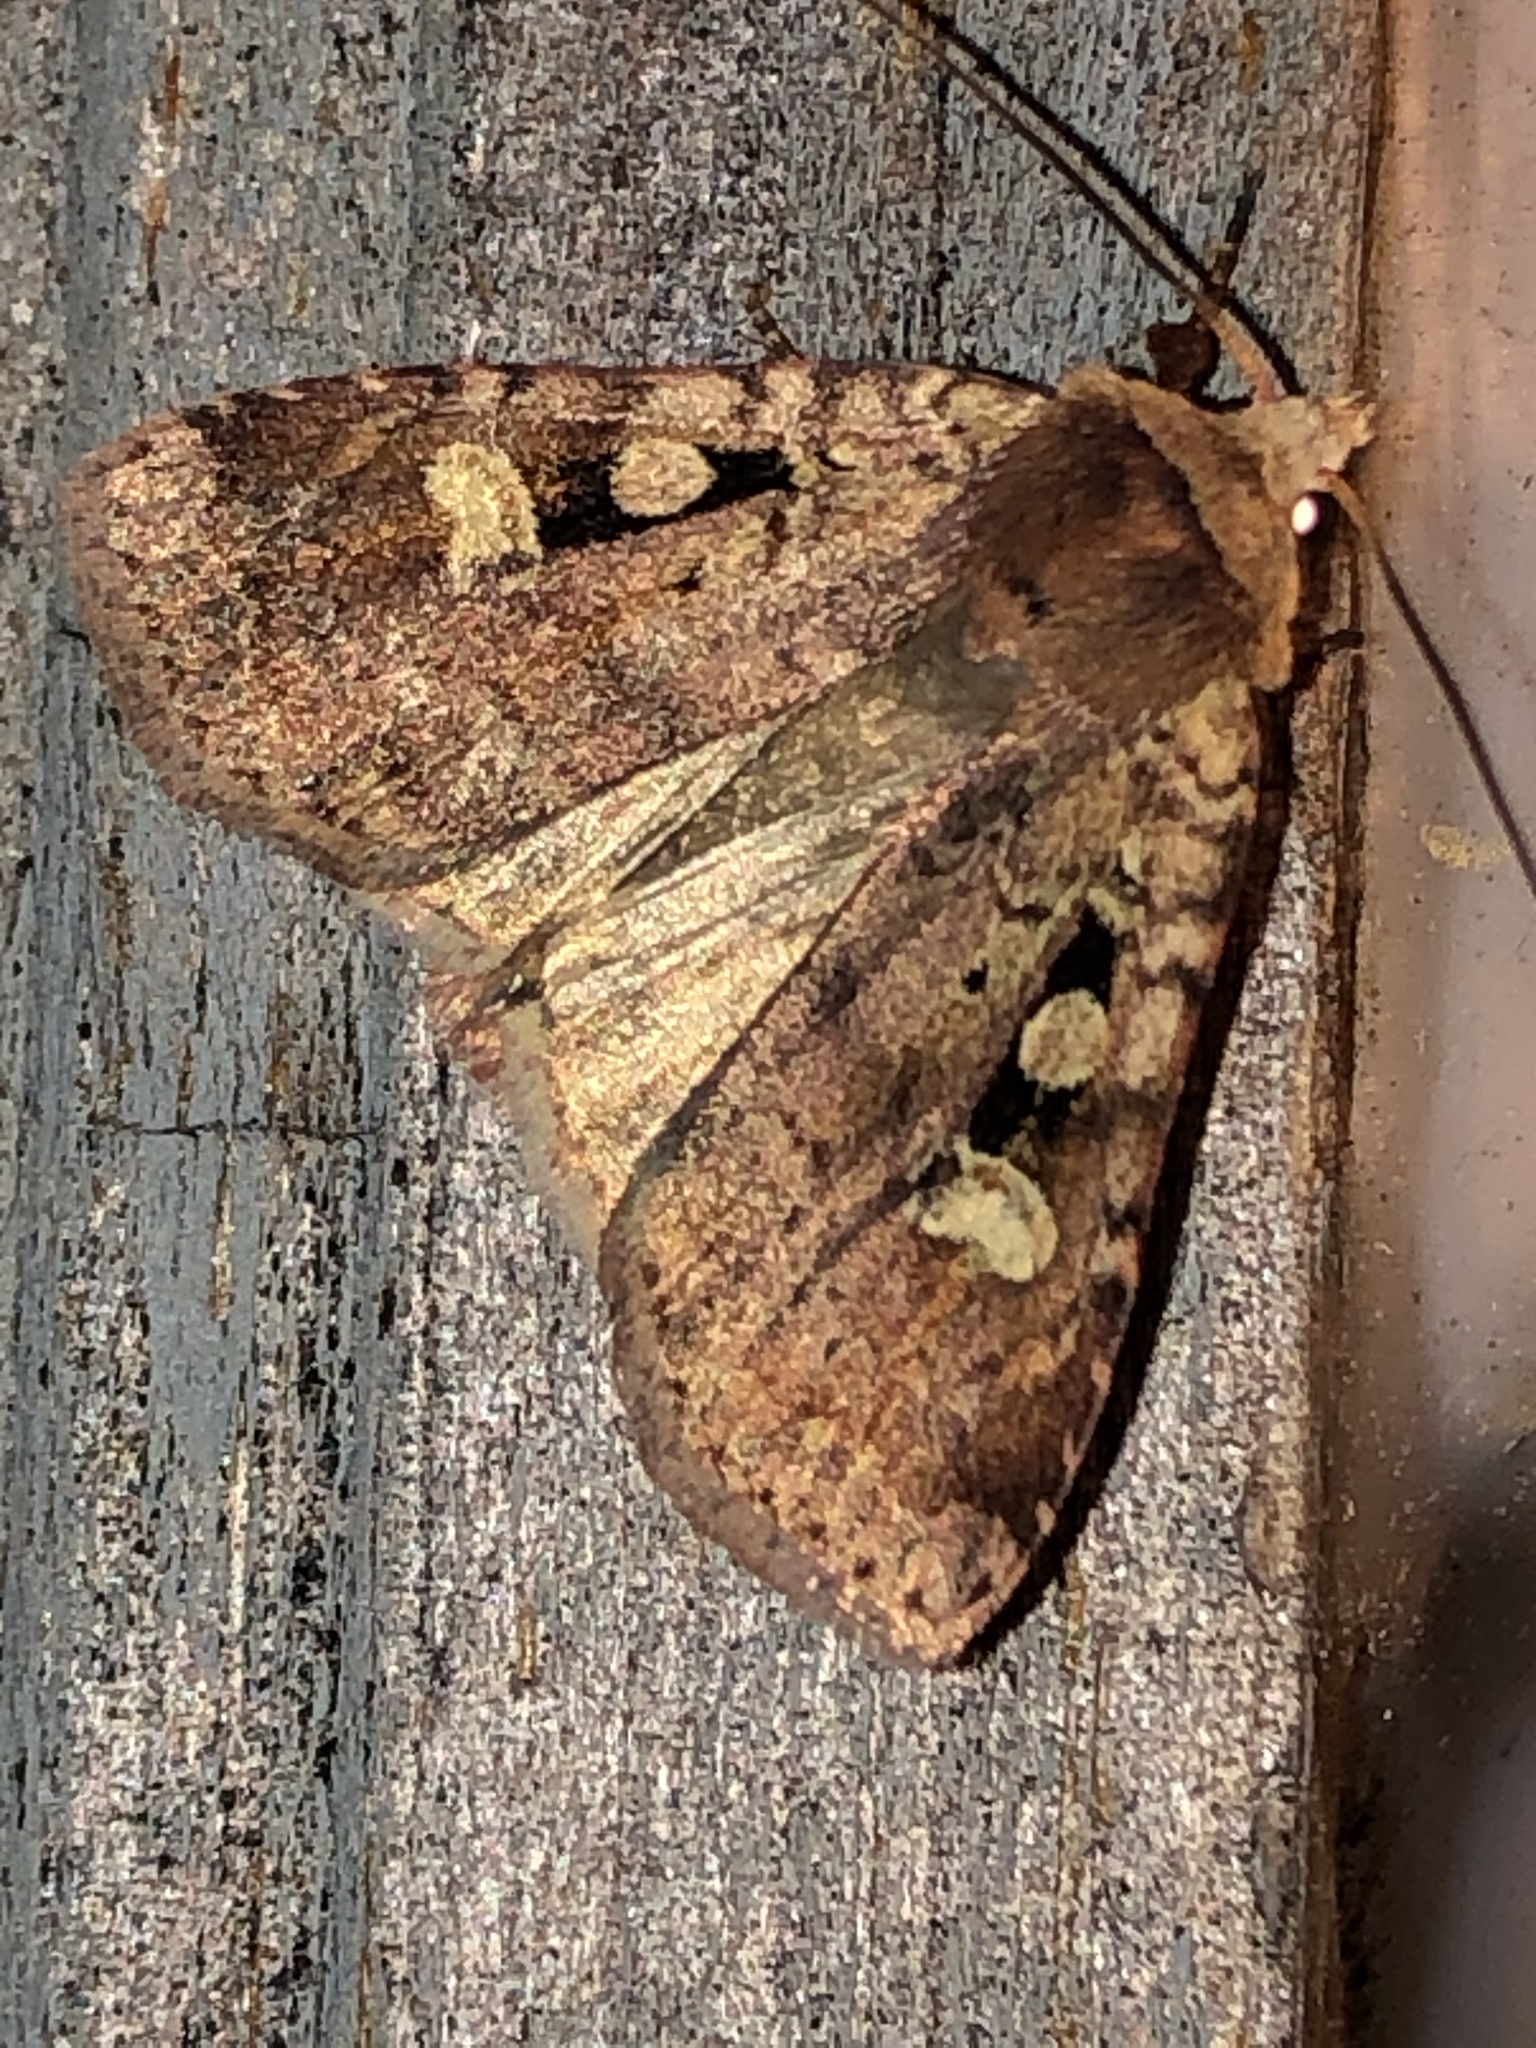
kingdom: Animalia
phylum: Arthropoda
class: Insecta
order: Lepidoptera
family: Noctuidae
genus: Eueretagrotis
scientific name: Eueretagrotis perattentus
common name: Two-spot dart moth
